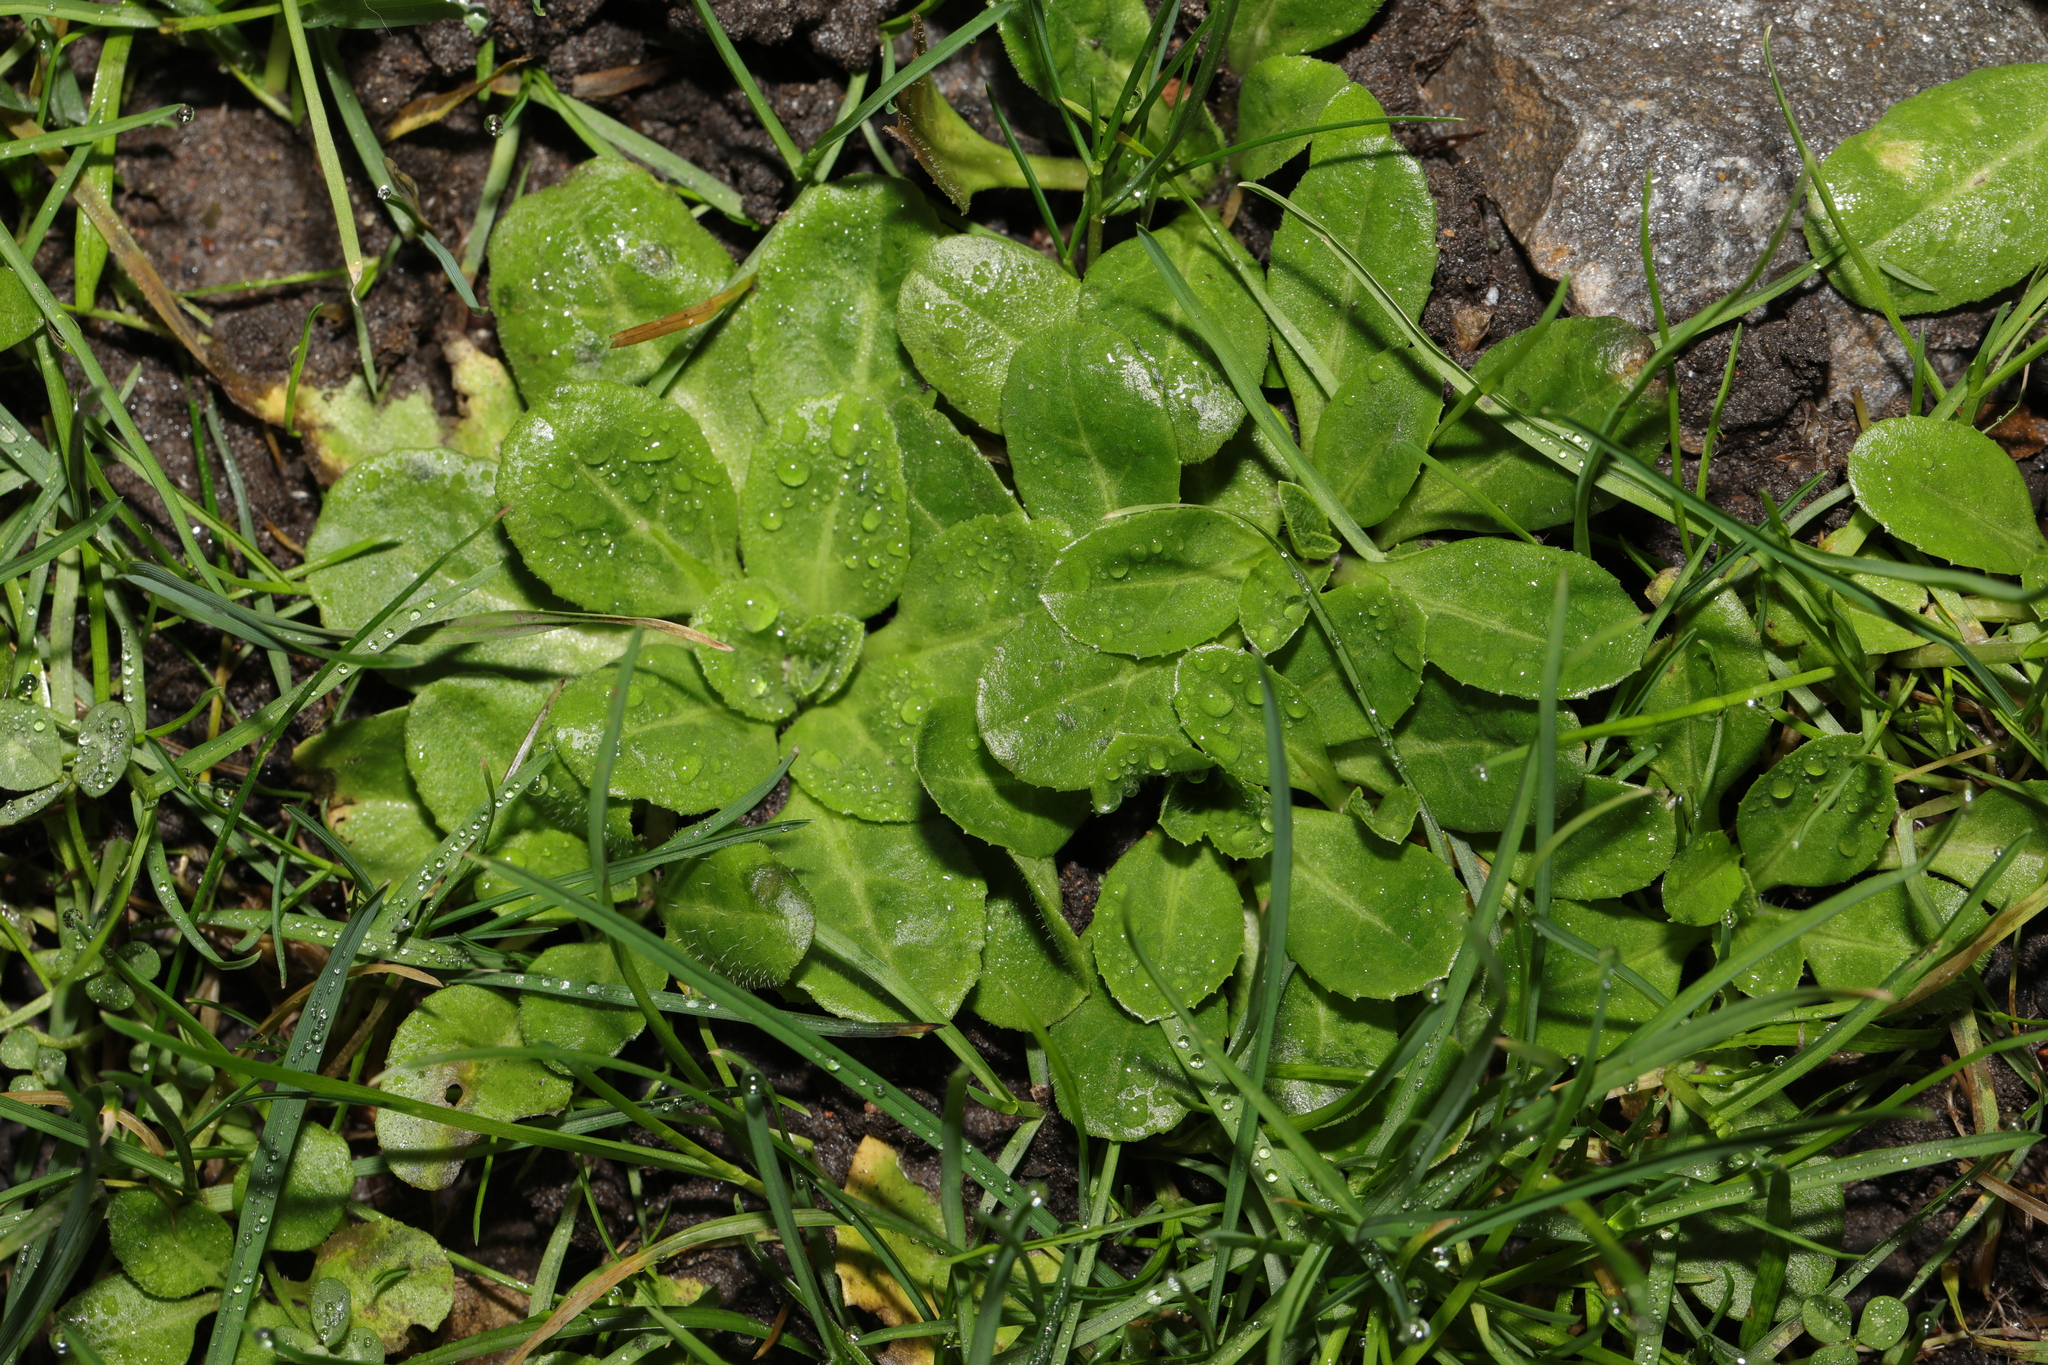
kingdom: Plantae
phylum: Tracheophyta
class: Magnoliopsida
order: Asterales
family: Asteraceae
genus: Bellis
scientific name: Bellis perennis
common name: Lawndaisy
